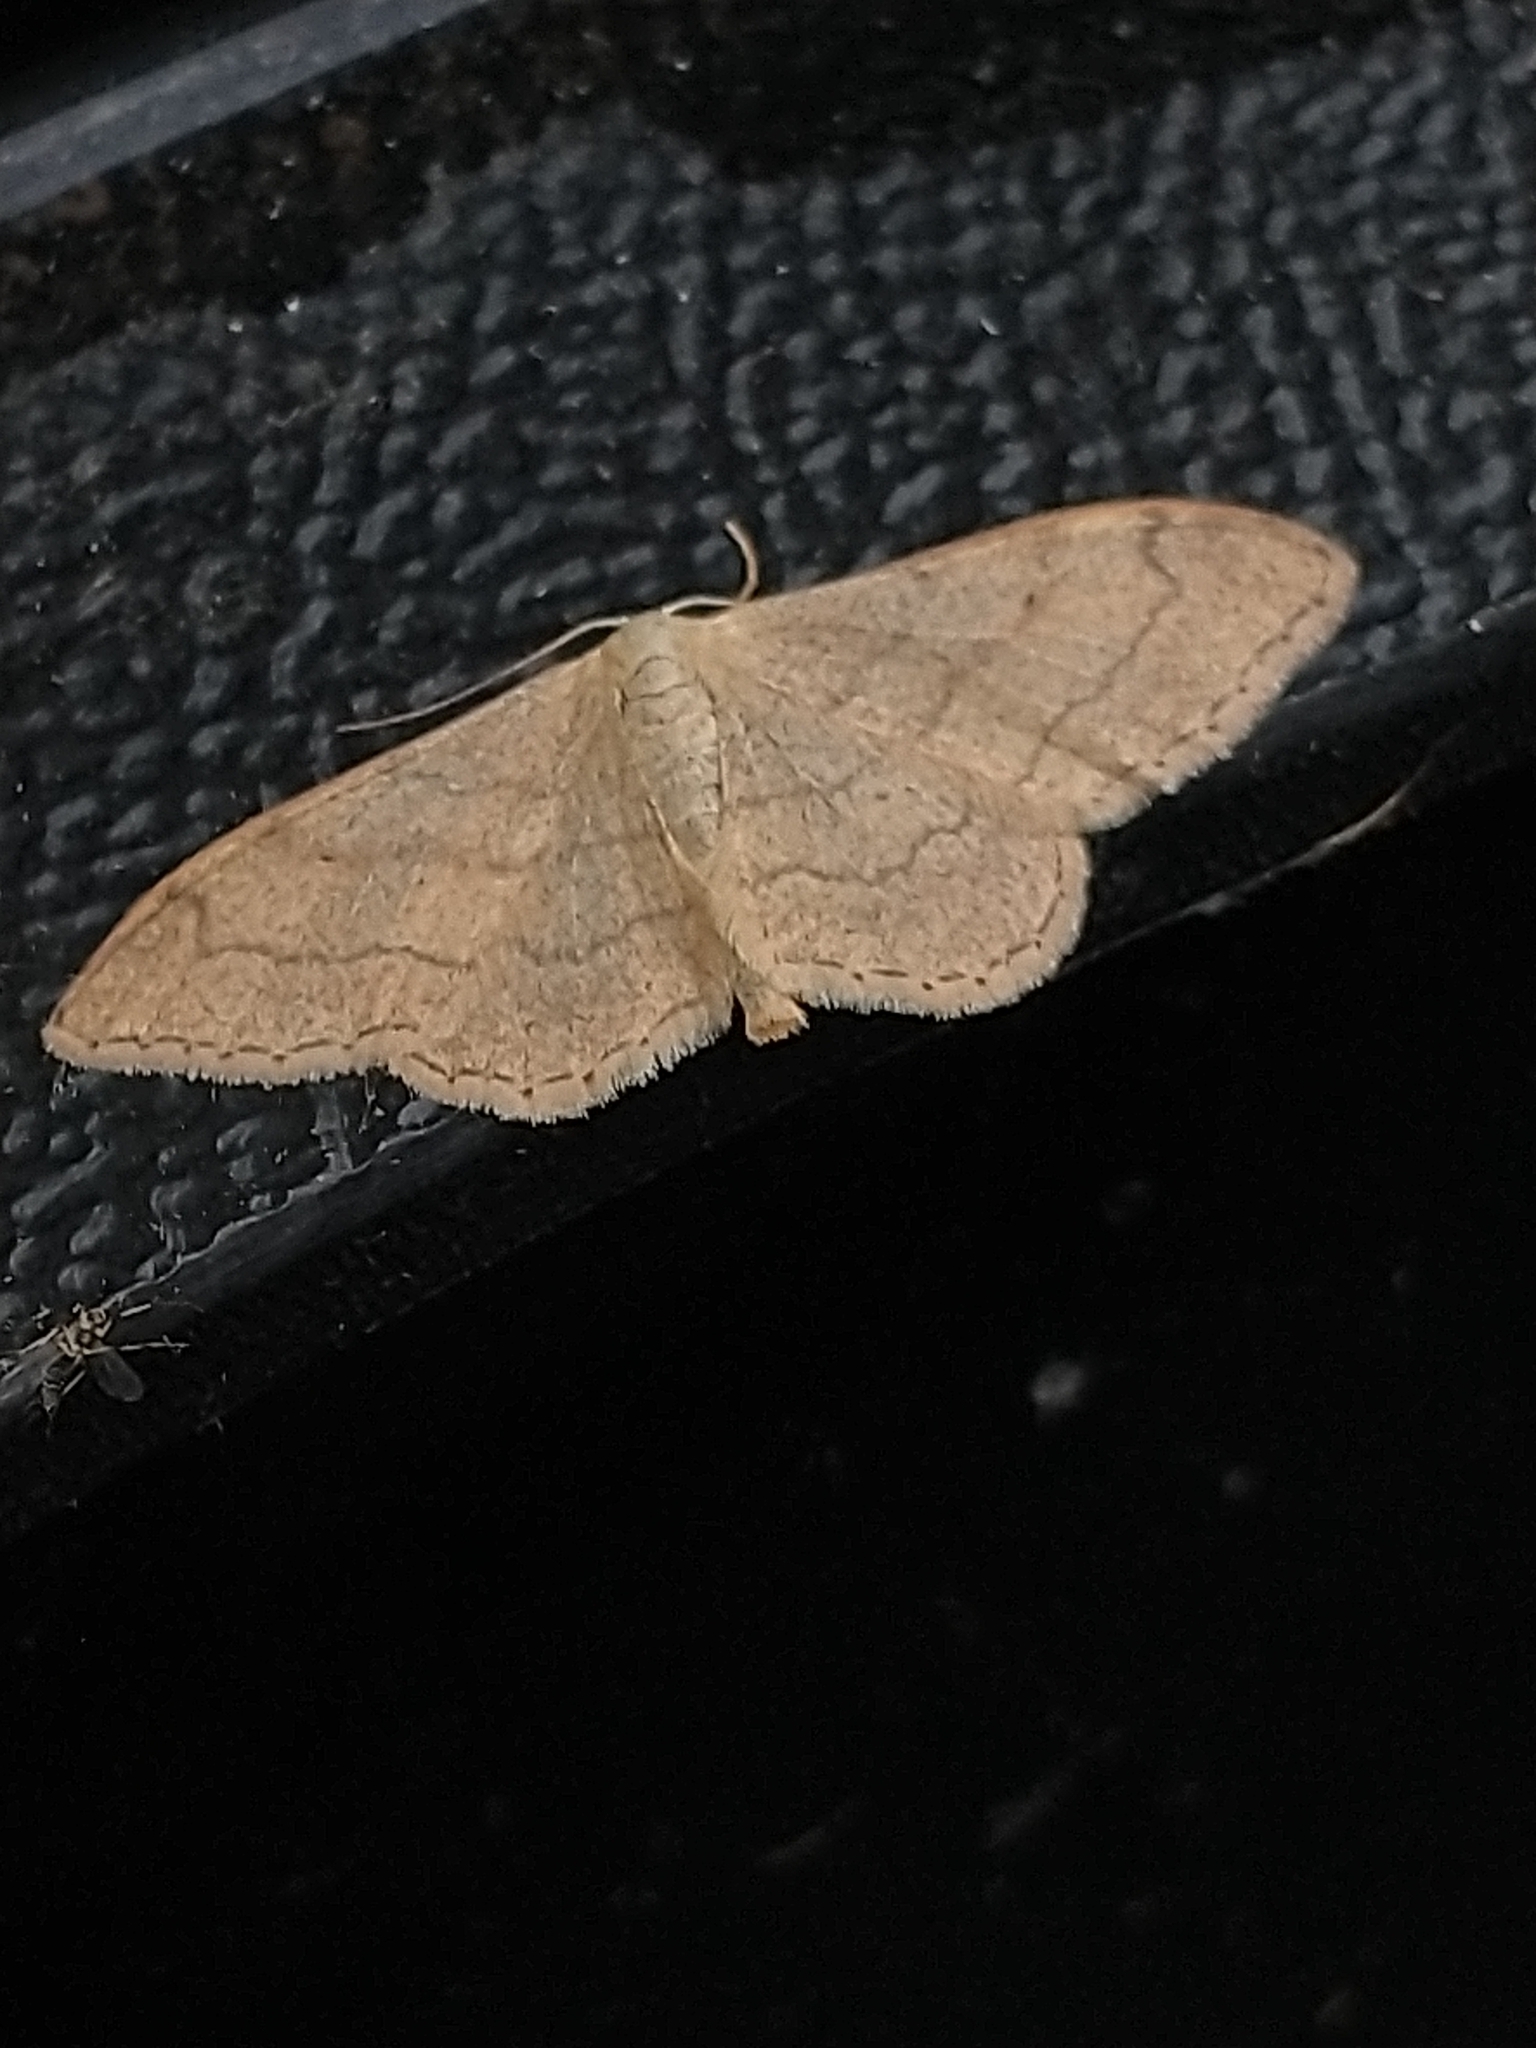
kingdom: Animalia
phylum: Arthropoda
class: Insecta
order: Lepidoptera
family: Geometridae
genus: Idaea
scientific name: Idaea aversata
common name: Riband wave
